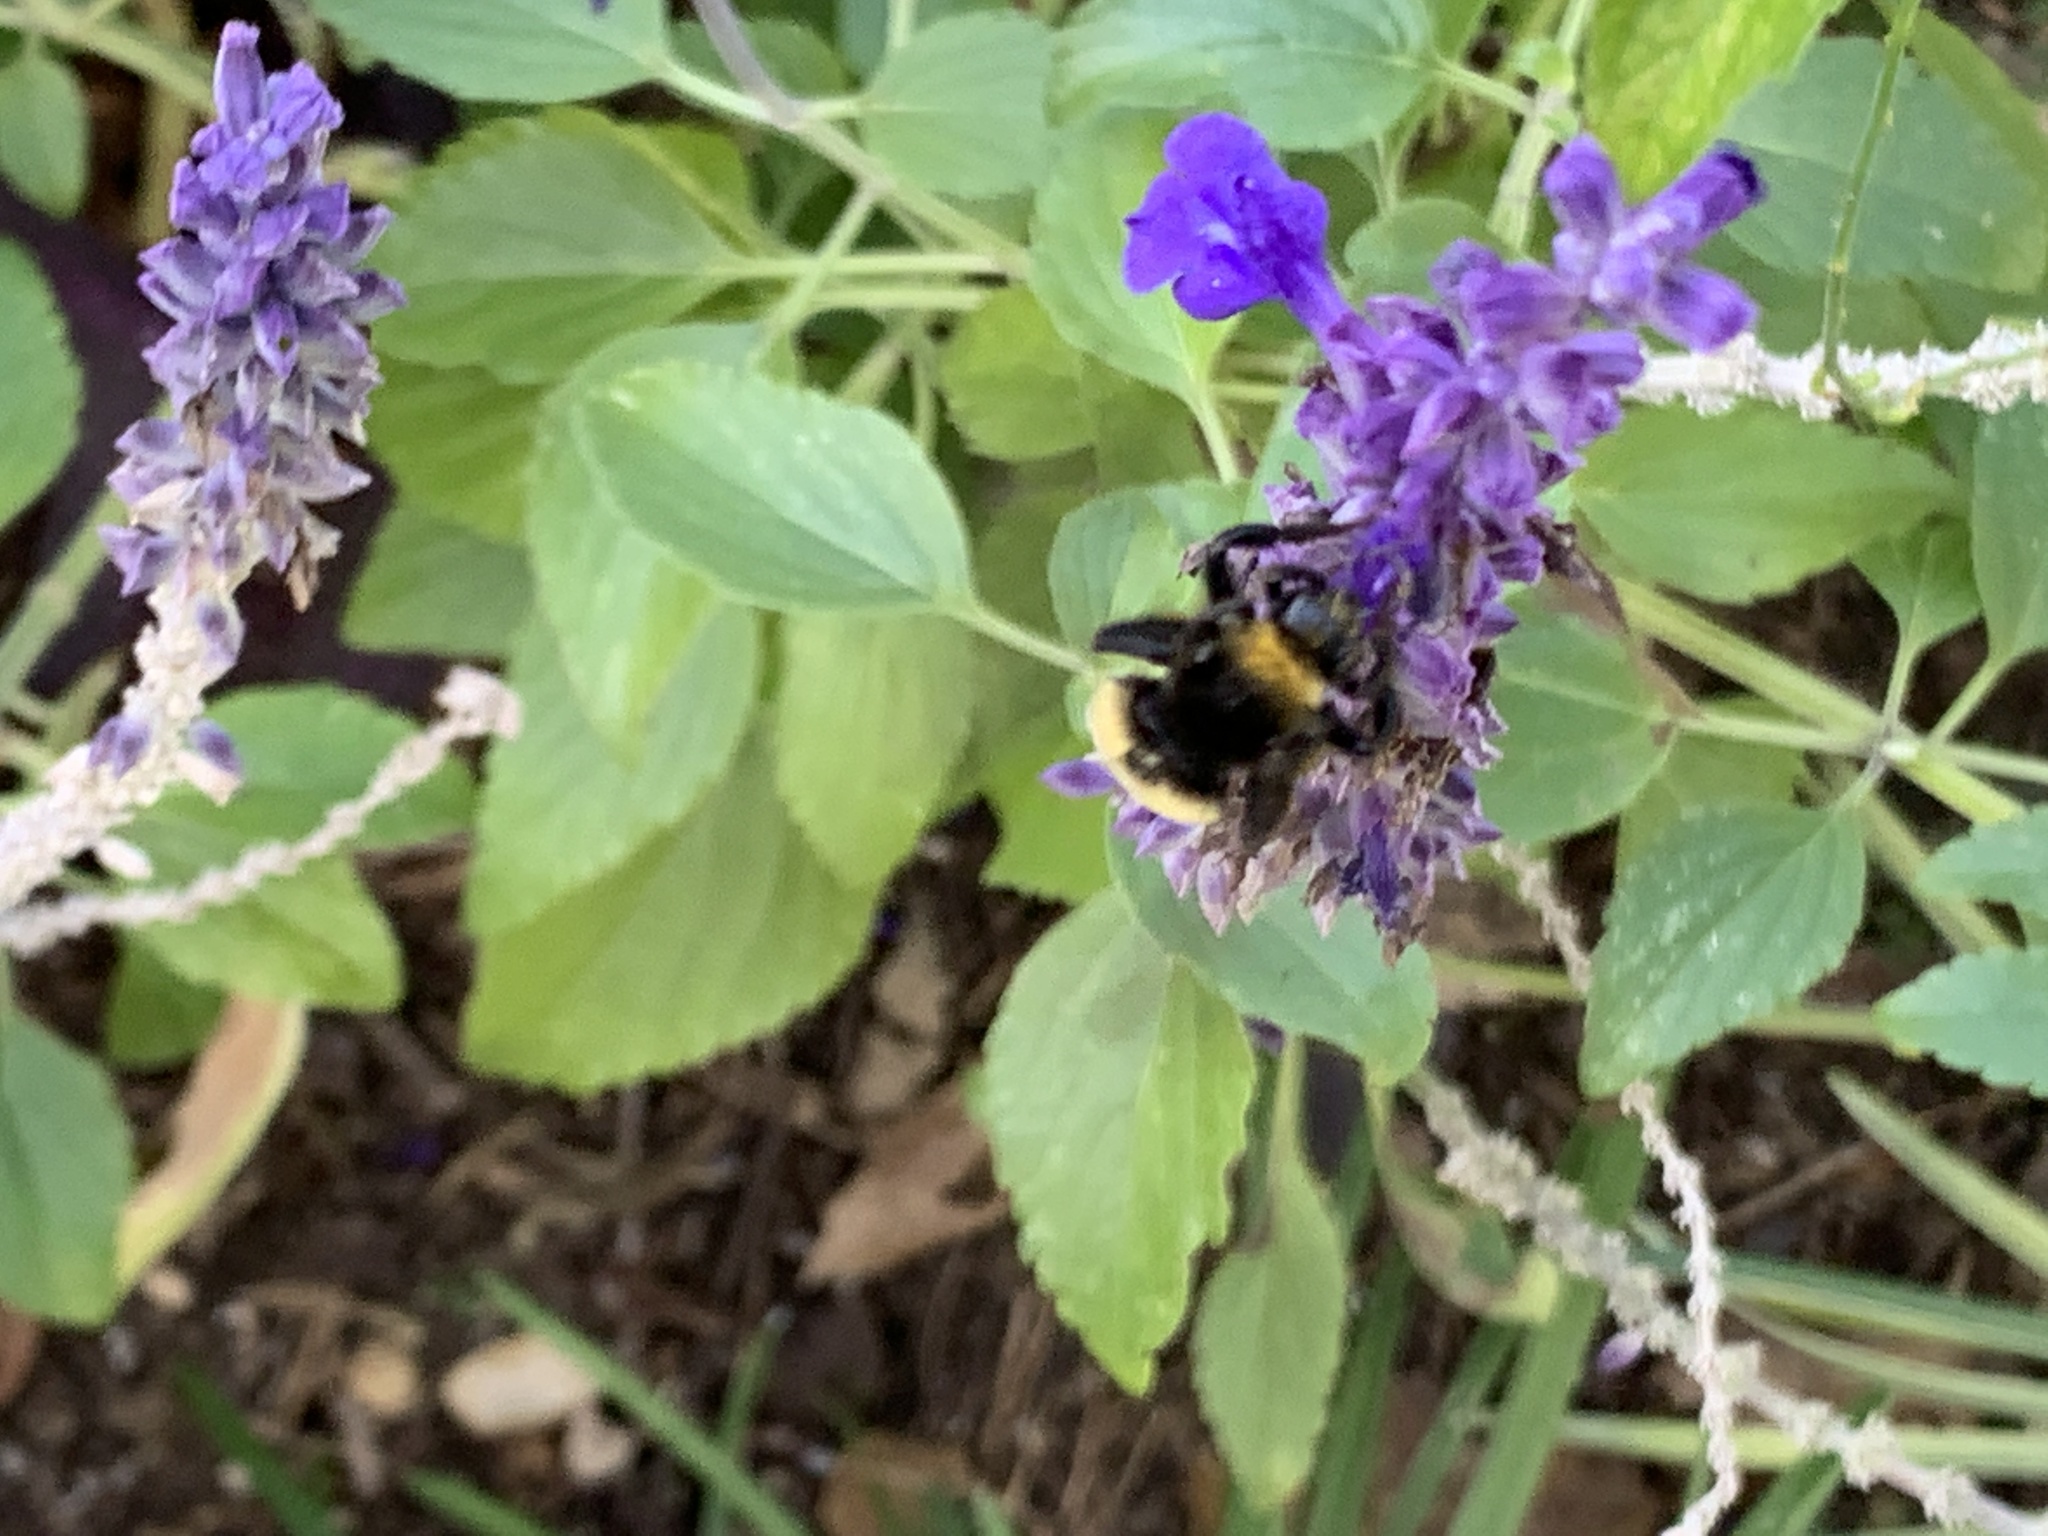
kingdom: Animalia
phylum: Arthropoda
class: Insecta
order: Hymenoptera
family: Apidae
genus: Bombus
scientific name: Bombus pensylvanicus
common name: Bumble bee
